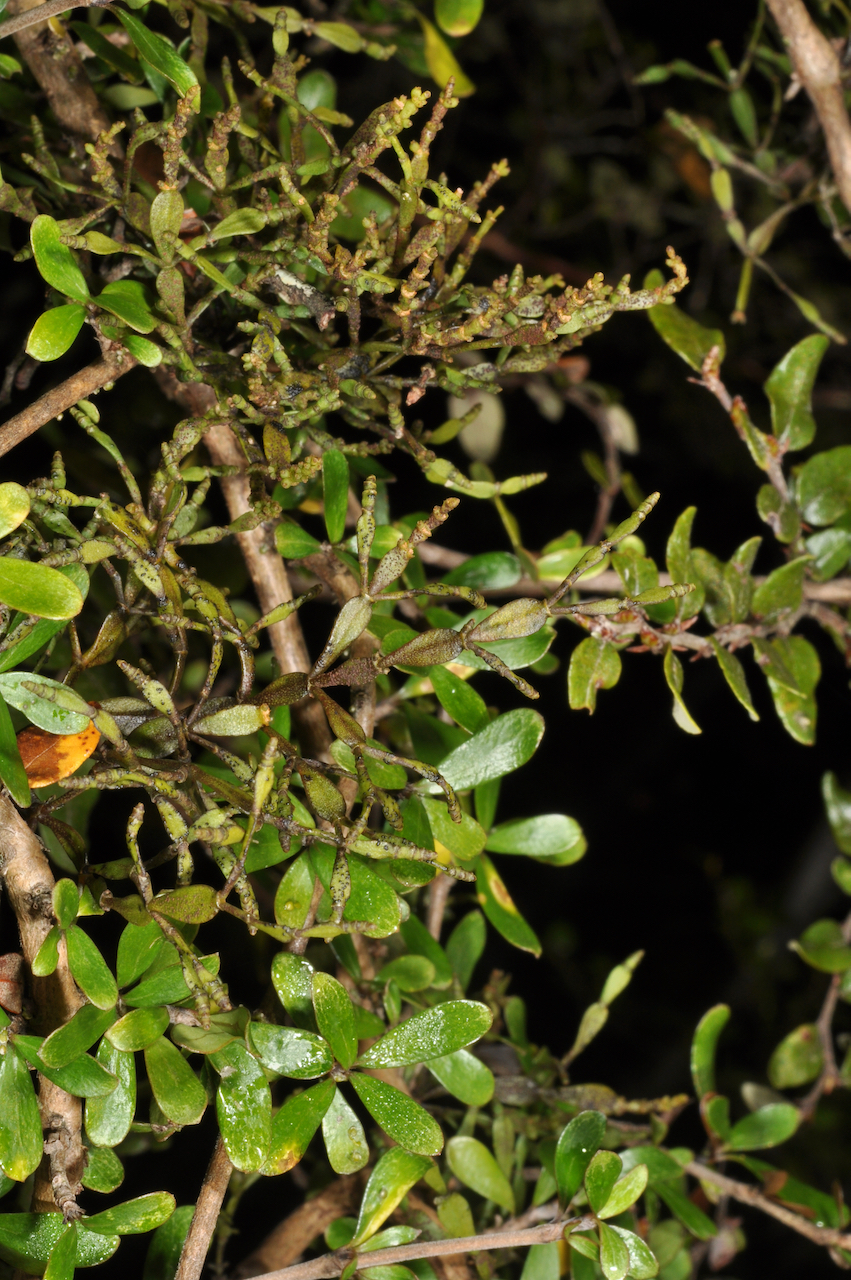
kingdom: Plantae
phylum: Tracheophyta
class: Magnoliopsida
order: Santalales
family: Viscaceae
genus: Korthalsella
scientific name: Korthalsella clavata
